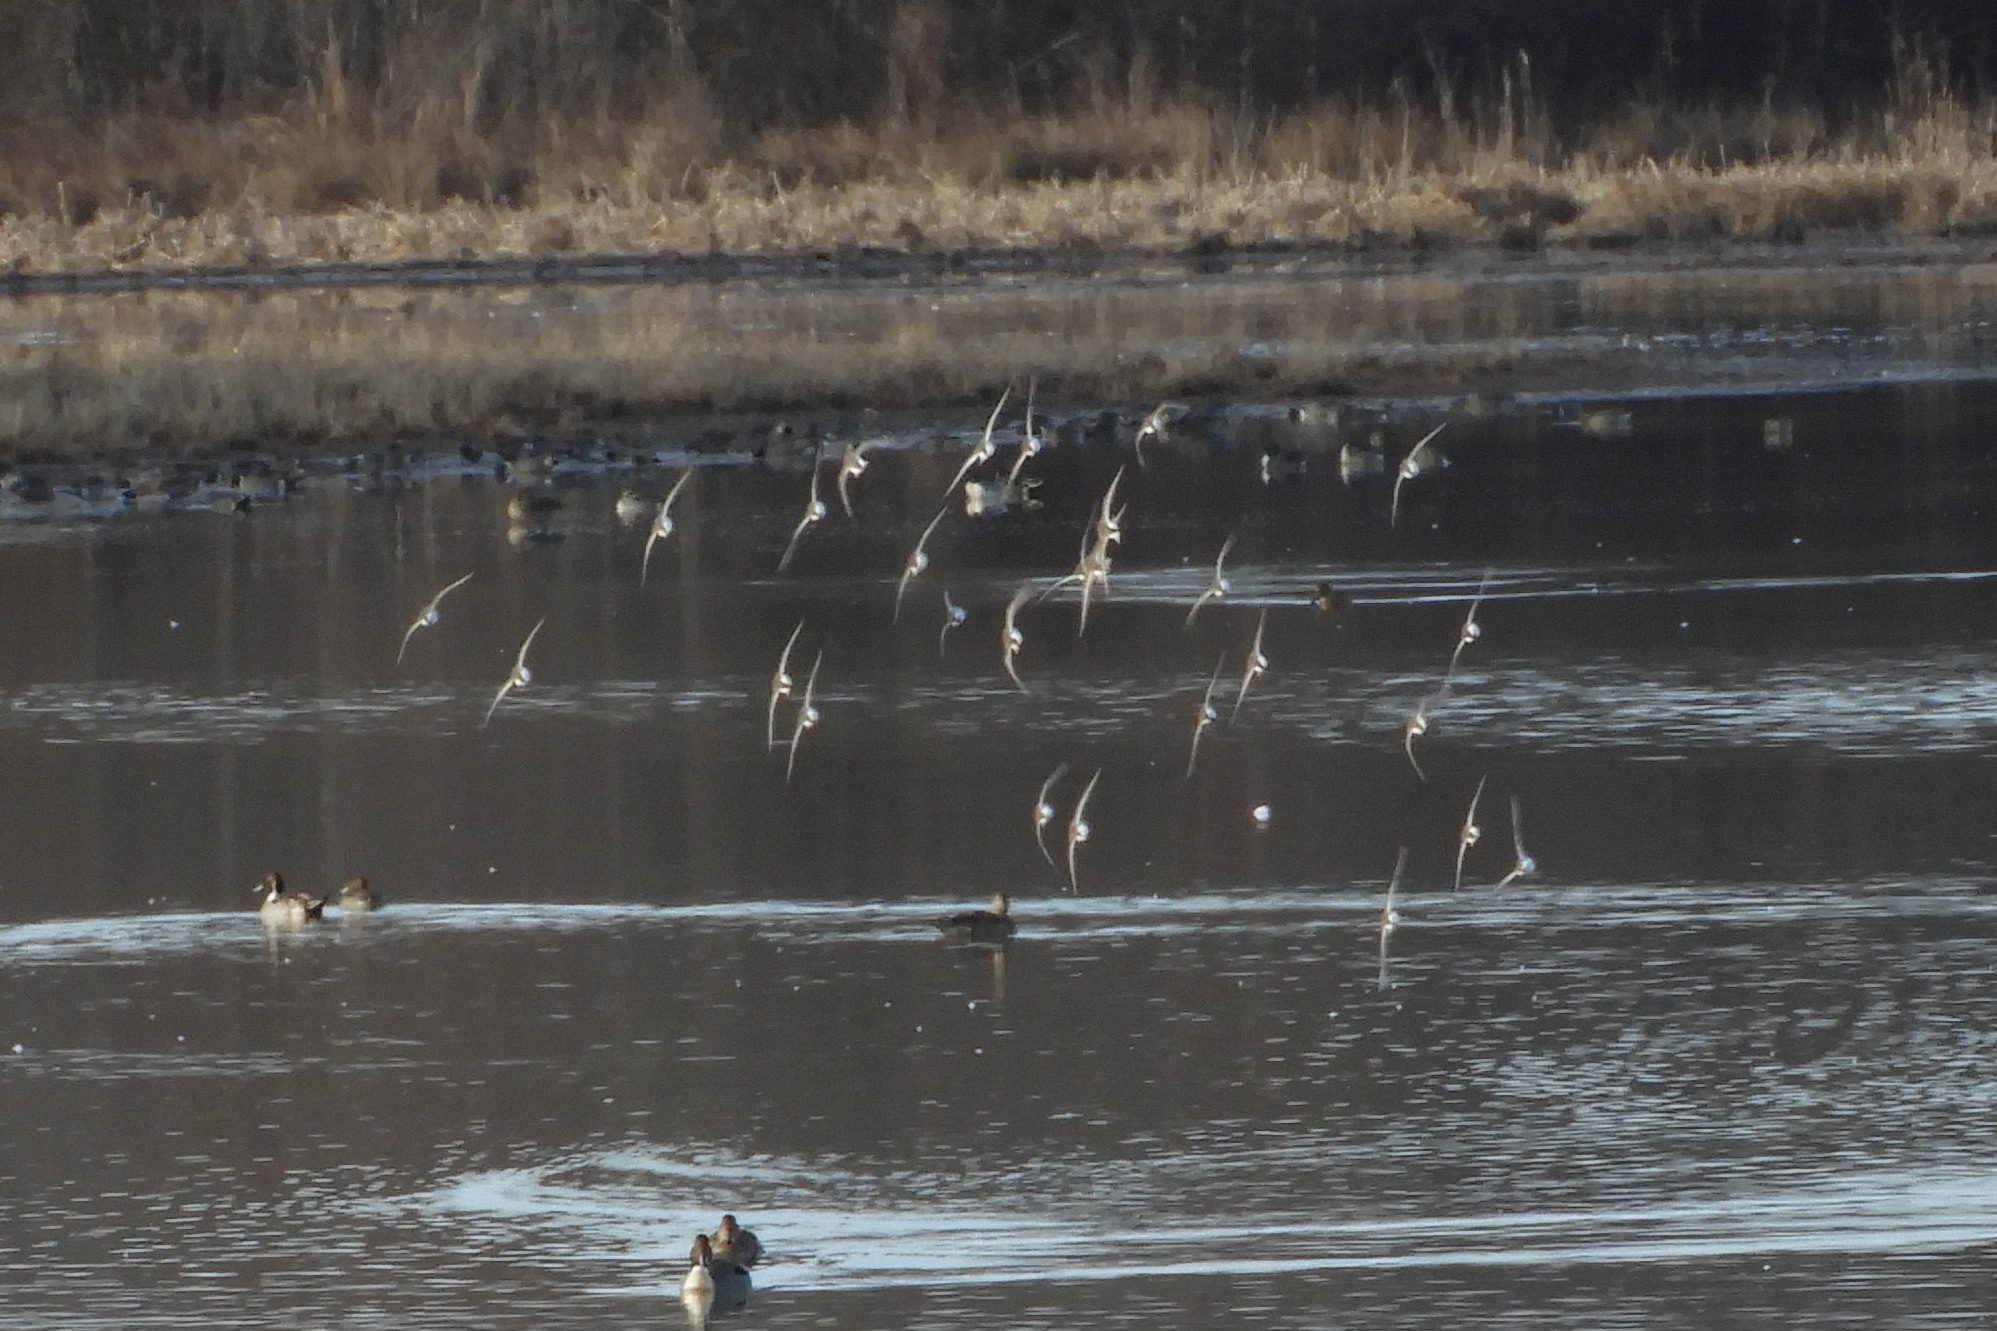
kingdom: Animalia
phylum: Chordata
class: Aves
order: Charadriiformes
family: Scolopacidae
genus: Calidris
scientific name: Calidris alpina
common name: Dunlin
